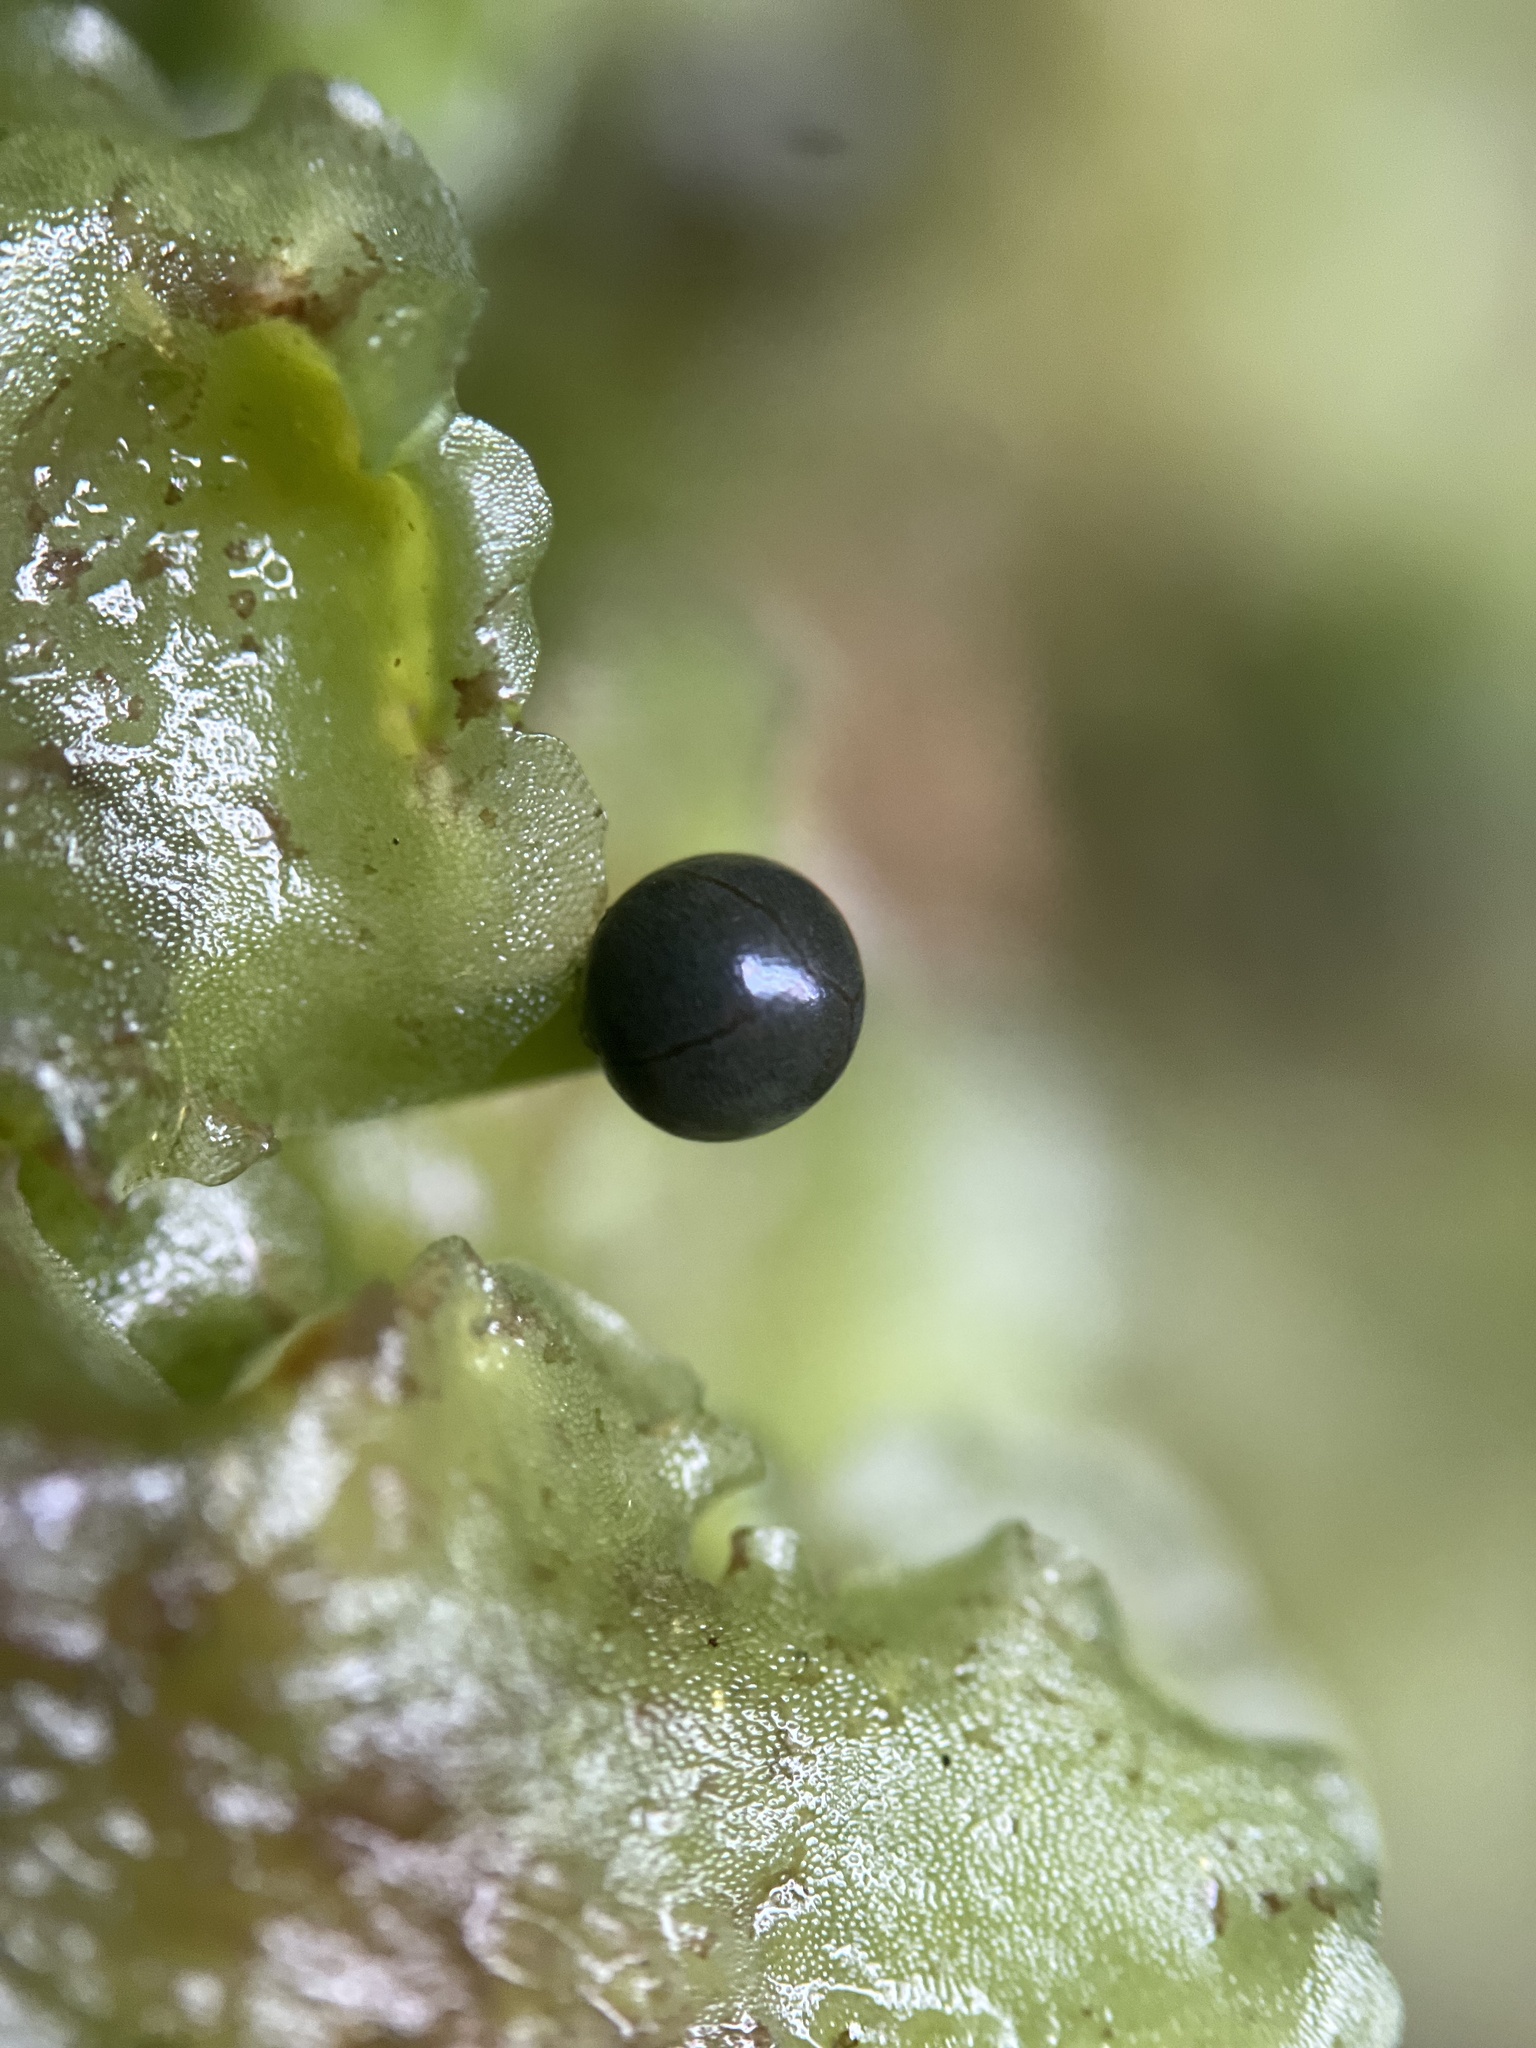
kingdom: Plantae
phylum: Marchantiophyta
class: Jungermanniopsida
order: Pelliales
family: Pelliaceae
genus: Pellia
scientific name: Pellia neesiana
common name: Nees  pellia
